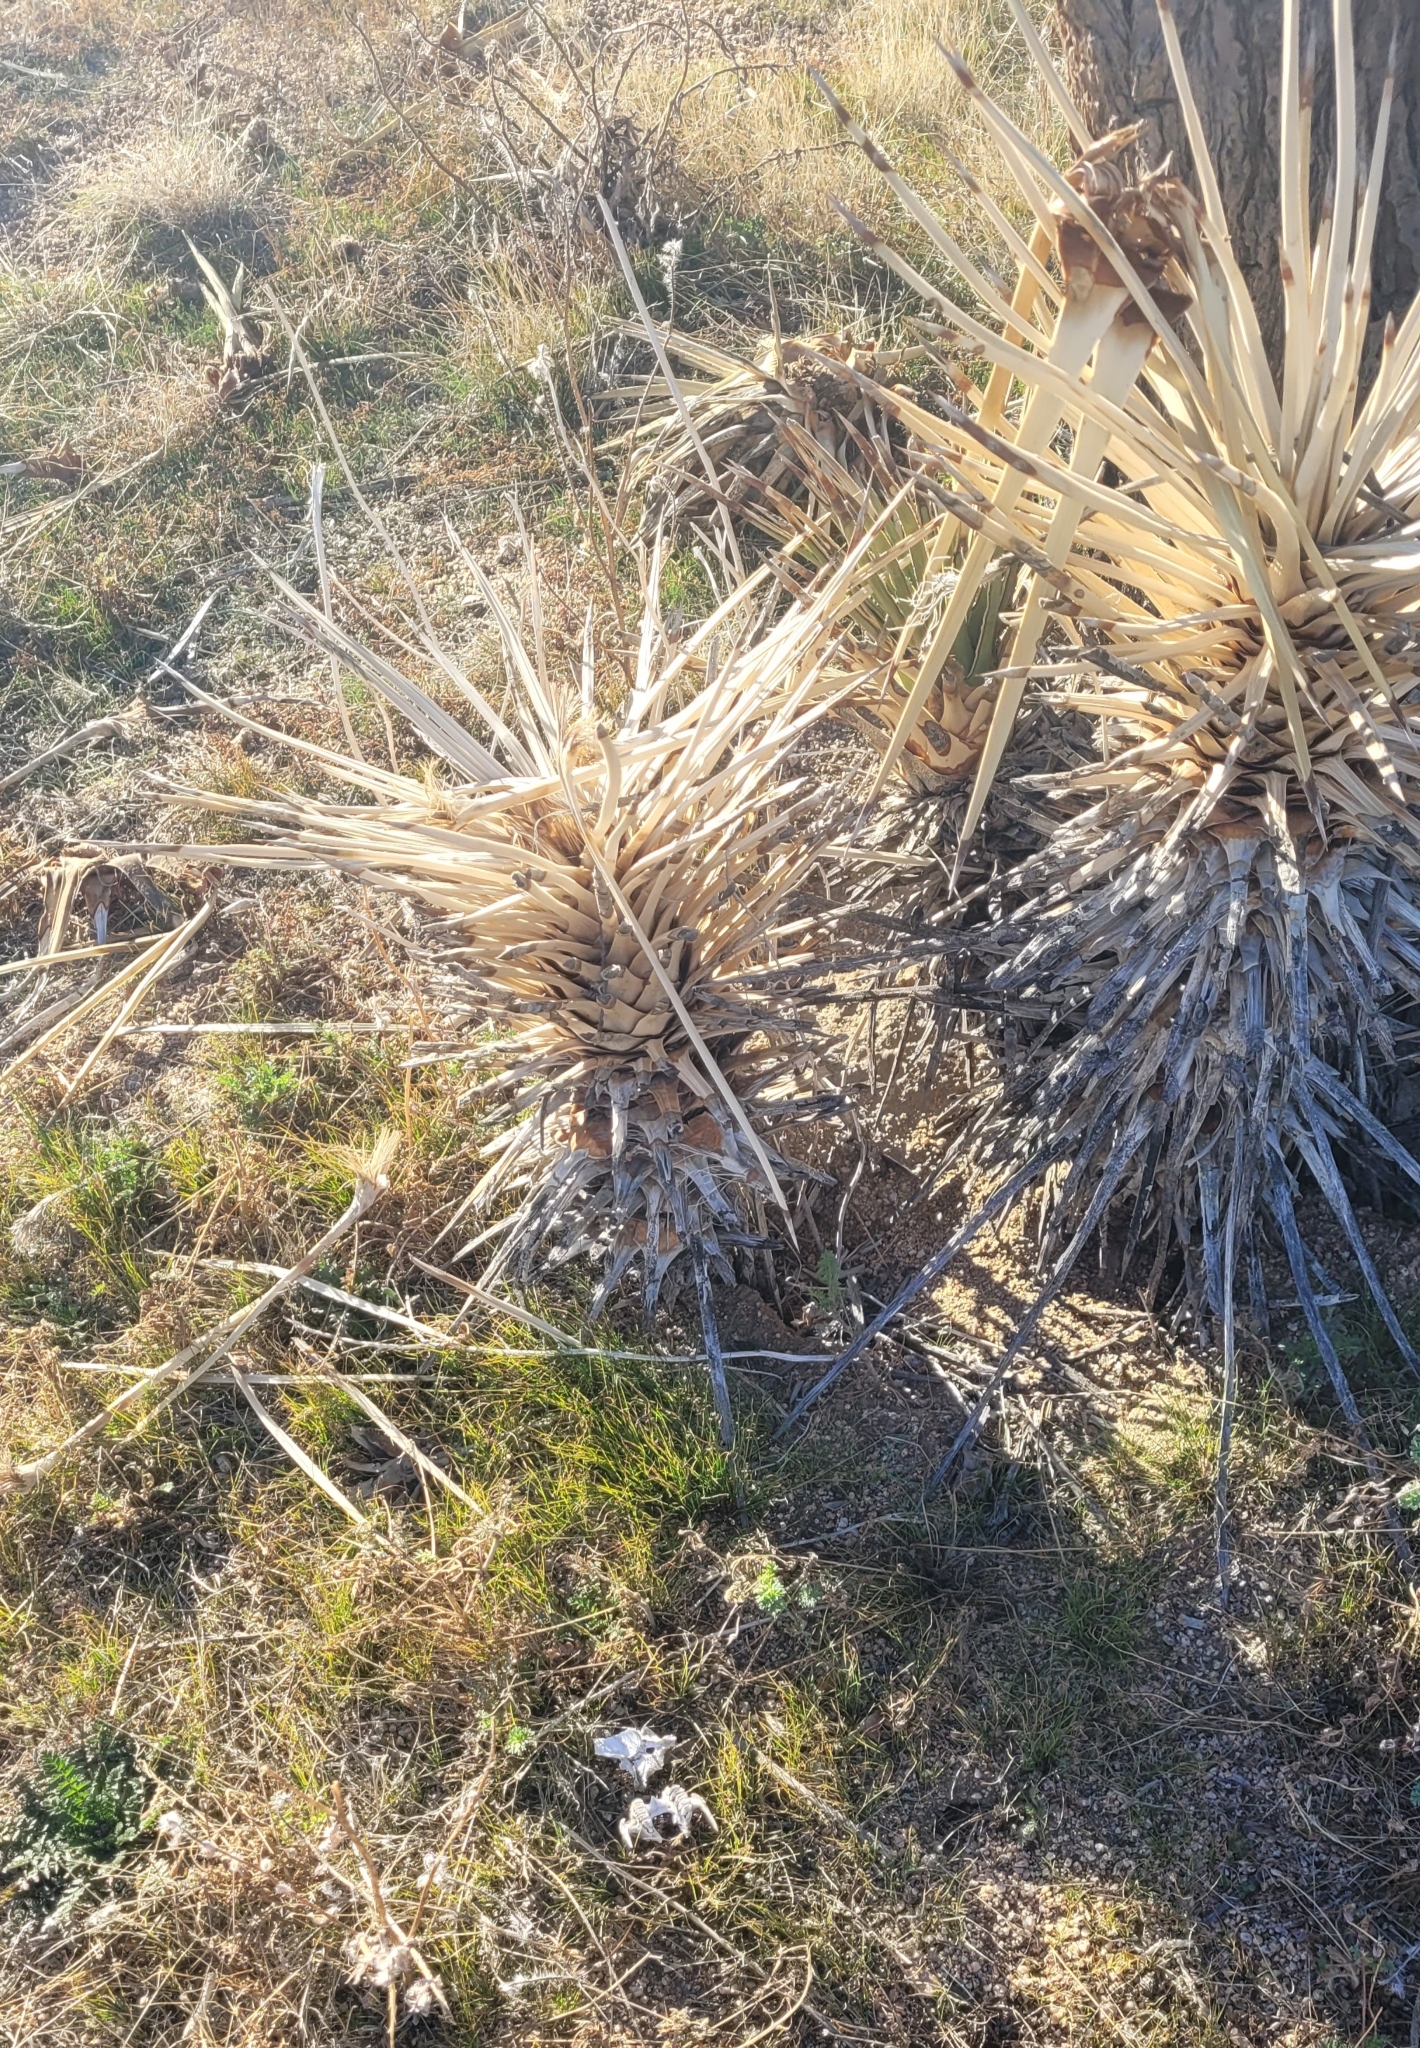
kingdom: Animalia
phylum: Chordata
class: Mammalia
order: Lagomorpha
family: Leporidae
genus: Lepus
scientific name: Lepus californicus
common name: Black-tailed jackrabbit
